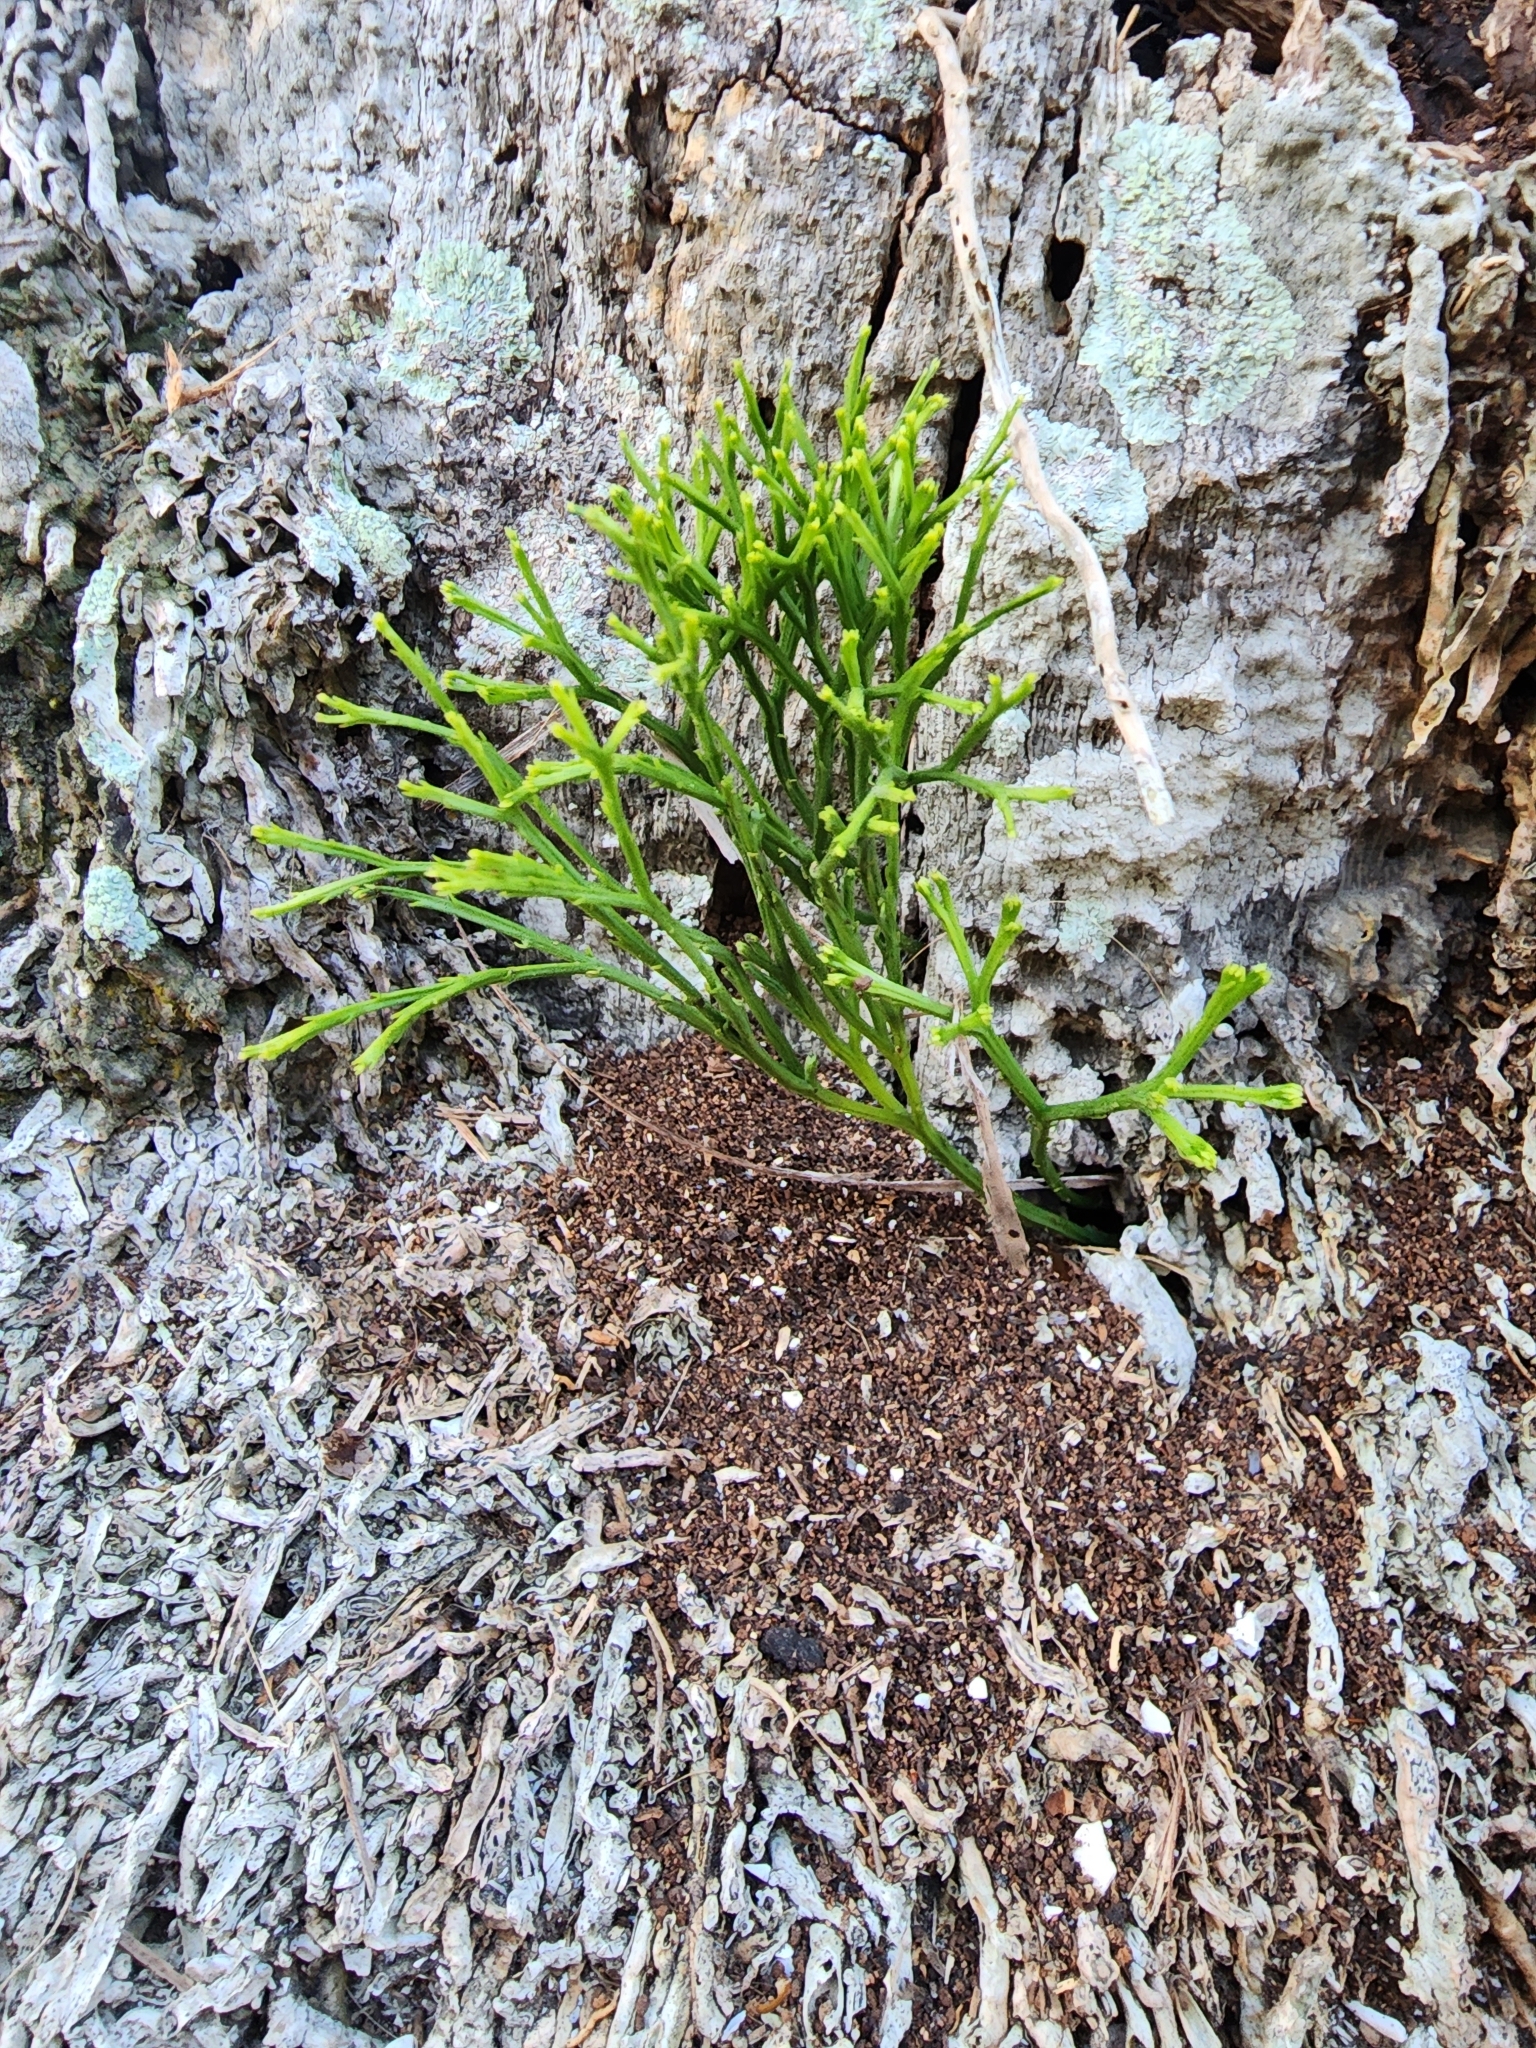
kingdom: Plantae
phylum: Tracheophyta
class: Polypodiopsida
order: Psilotales
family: Psilotaceae
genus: Psilotum
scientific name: Psilotum nudum
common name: Skeleton fork fern
